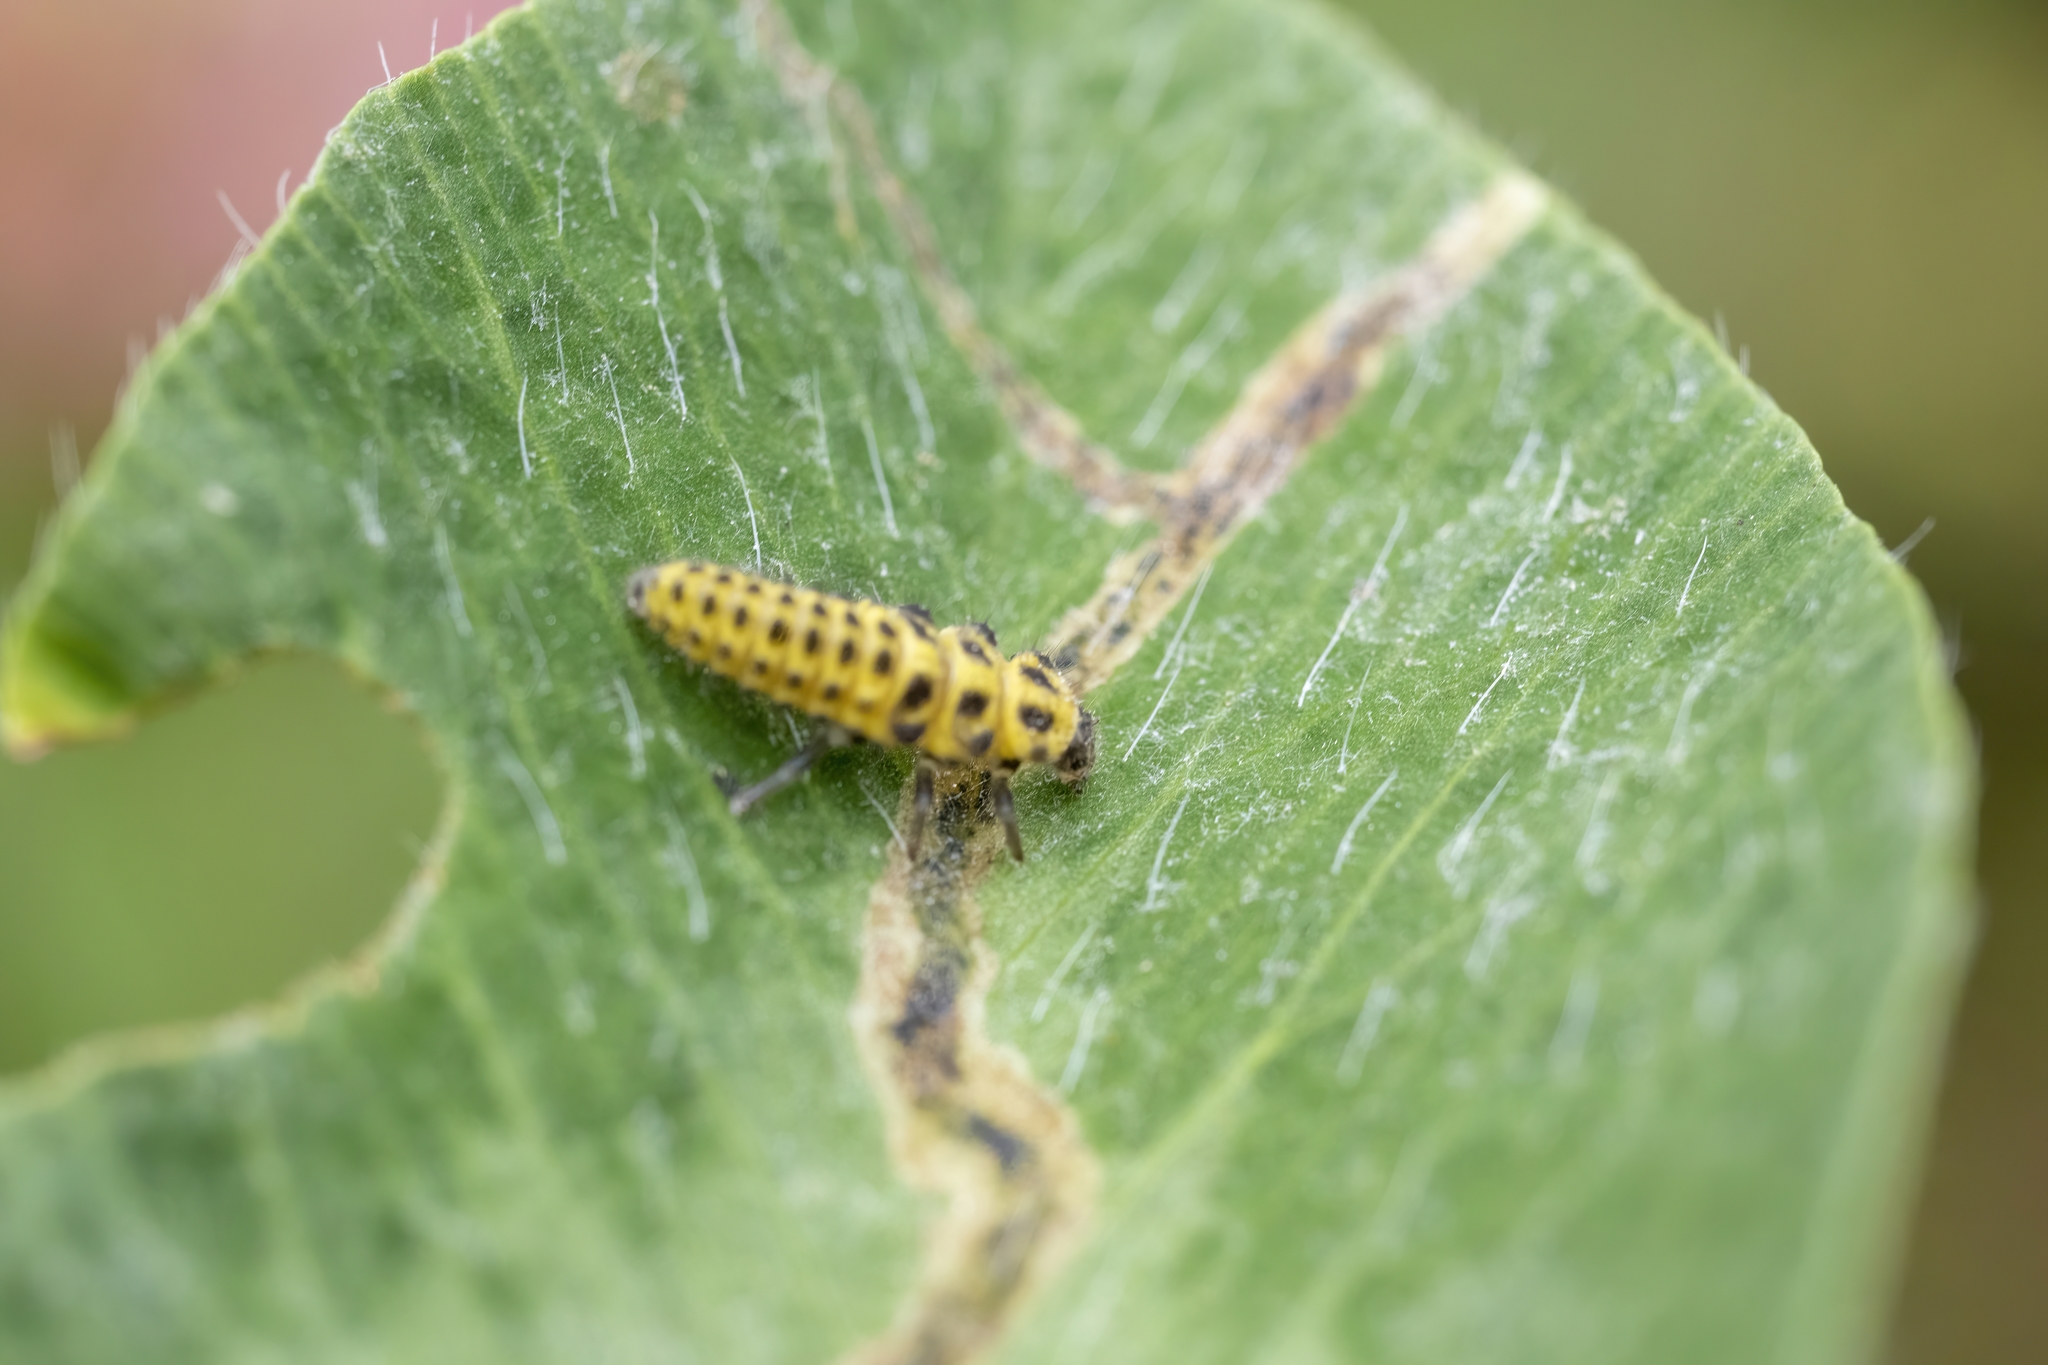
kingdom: Animalia
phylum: Arthropoda
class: Insecta
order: Coleoptera
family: Coccinellidae
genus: Psyllobora
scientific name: Psyllobora vigintiduopunctata
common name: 22-spot ladybird
